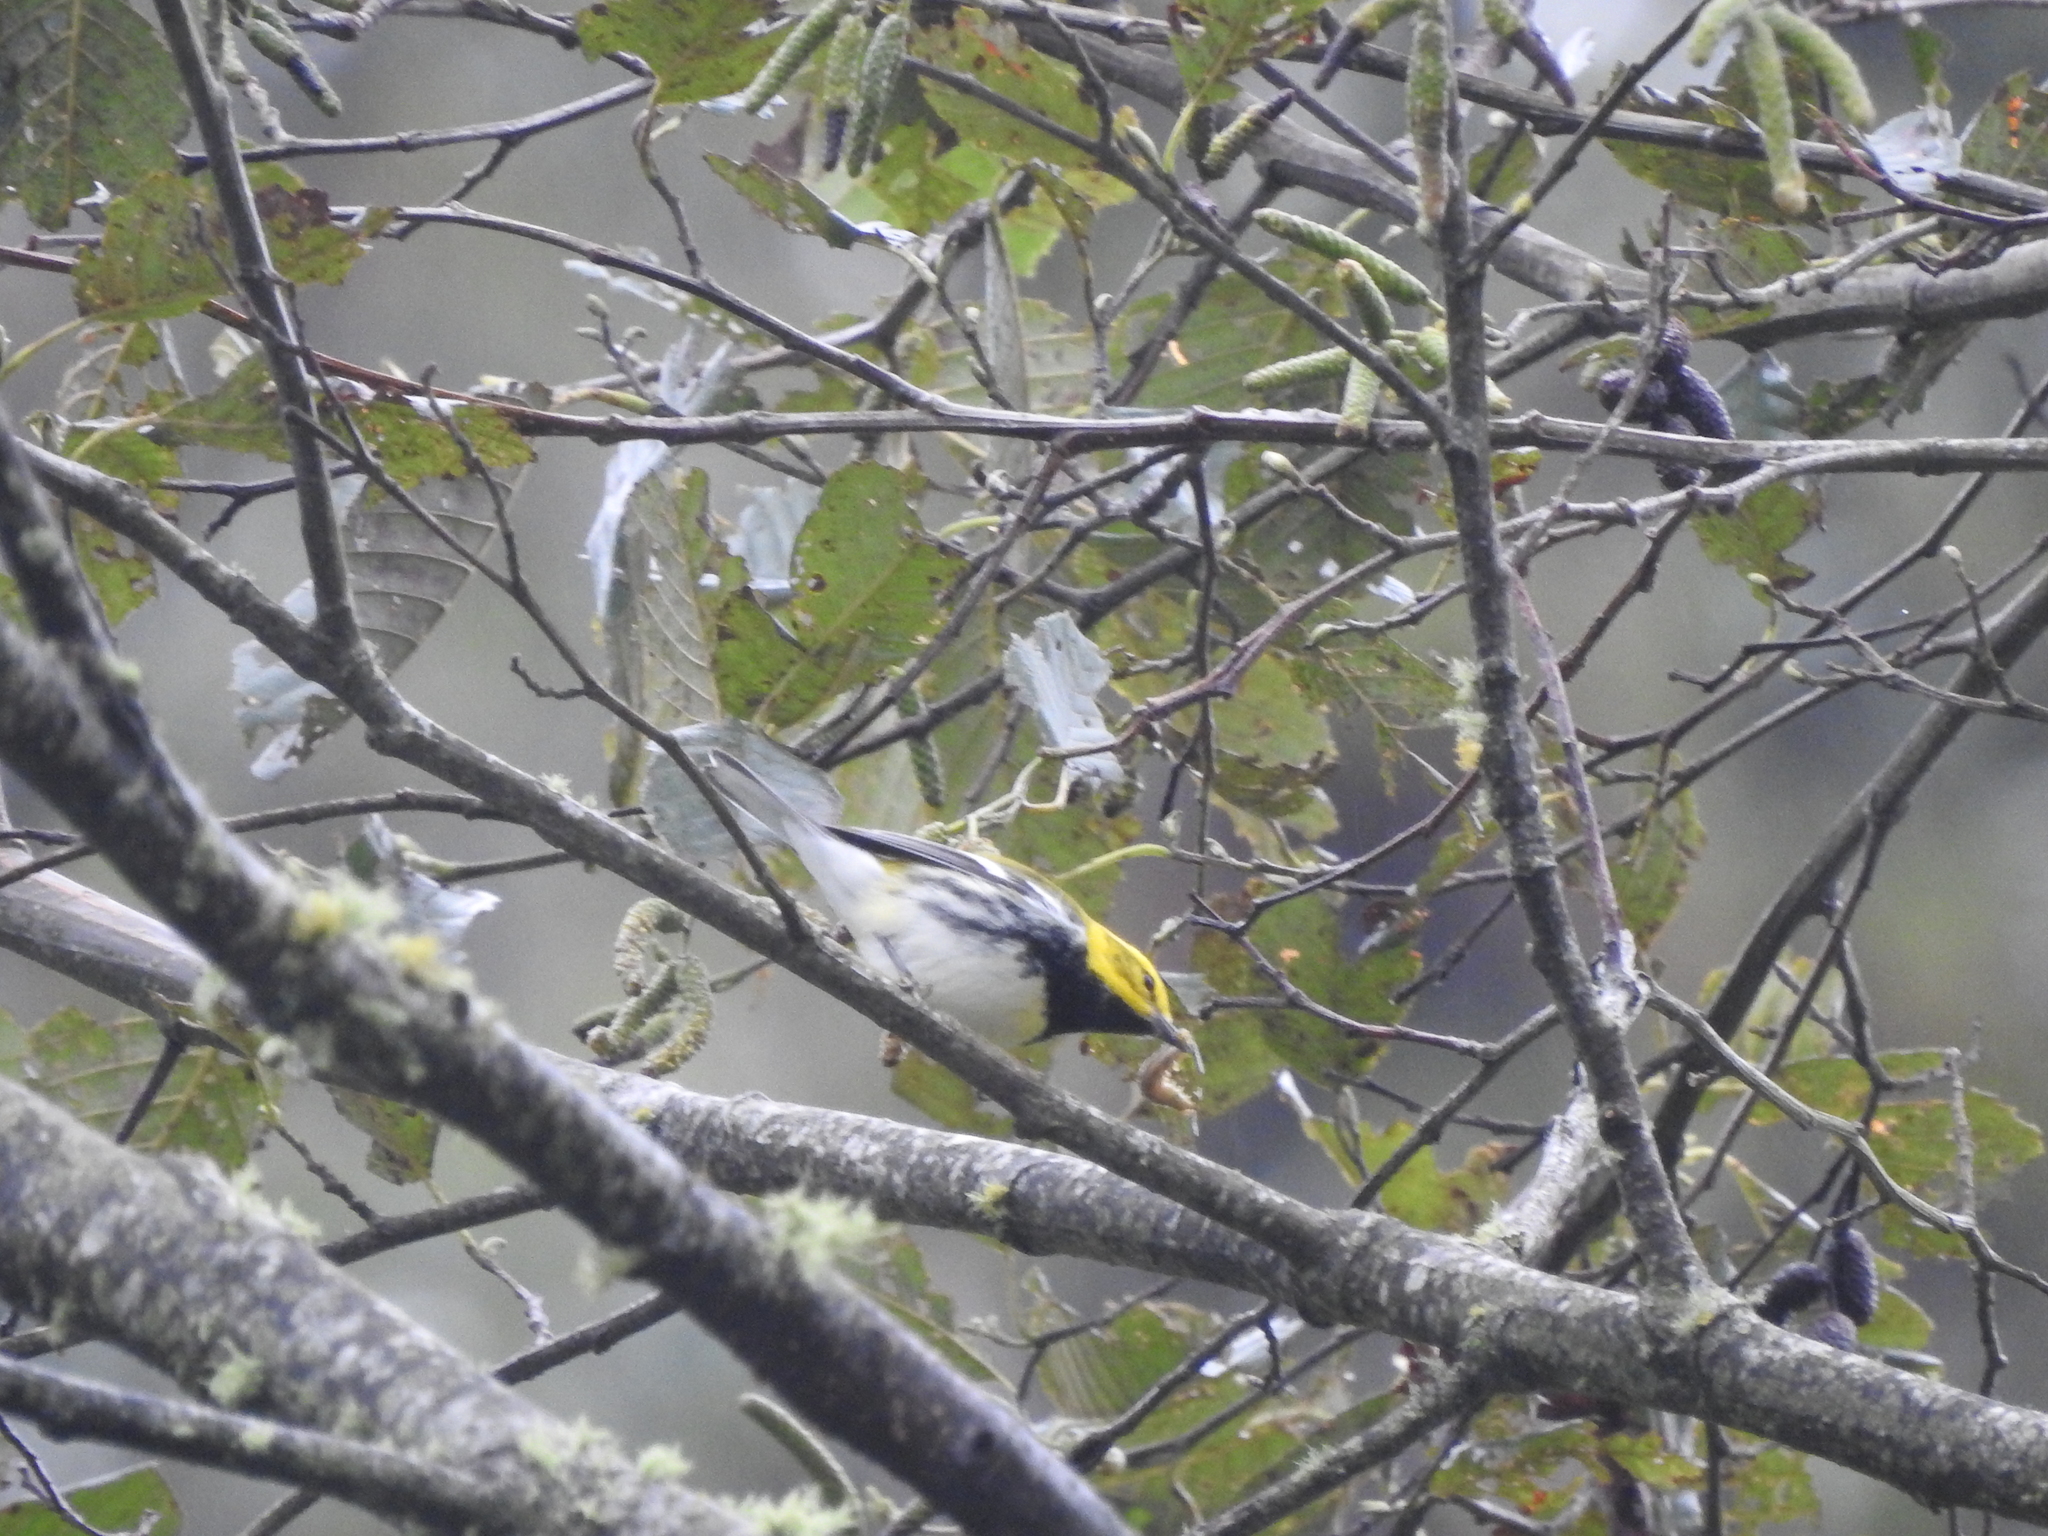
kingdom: Animalia
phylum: Chordata
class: Aves
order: Passeriformes
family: Parulidae
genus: Setophaga
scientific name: Setophaga virens
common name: Black-throated green warbler
